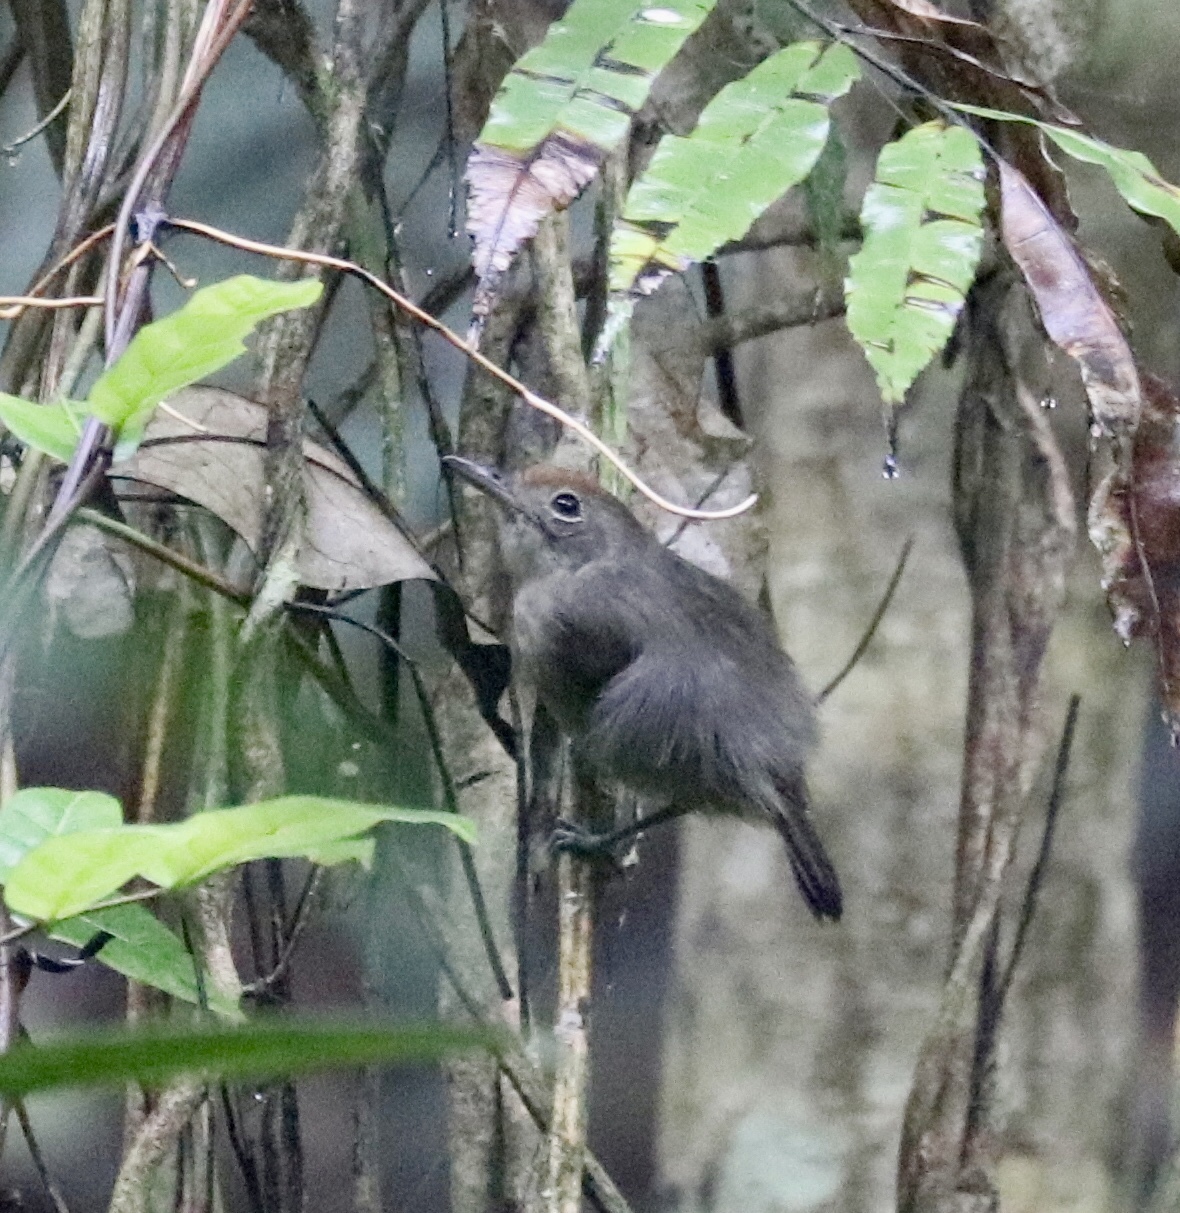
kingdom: Animalia
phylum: Chordata
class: Aves
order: Passeriformes
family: Thamnophilidae
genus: Dysithamnus
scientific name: Dysithamnus mentalis
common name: Plain antvireo
